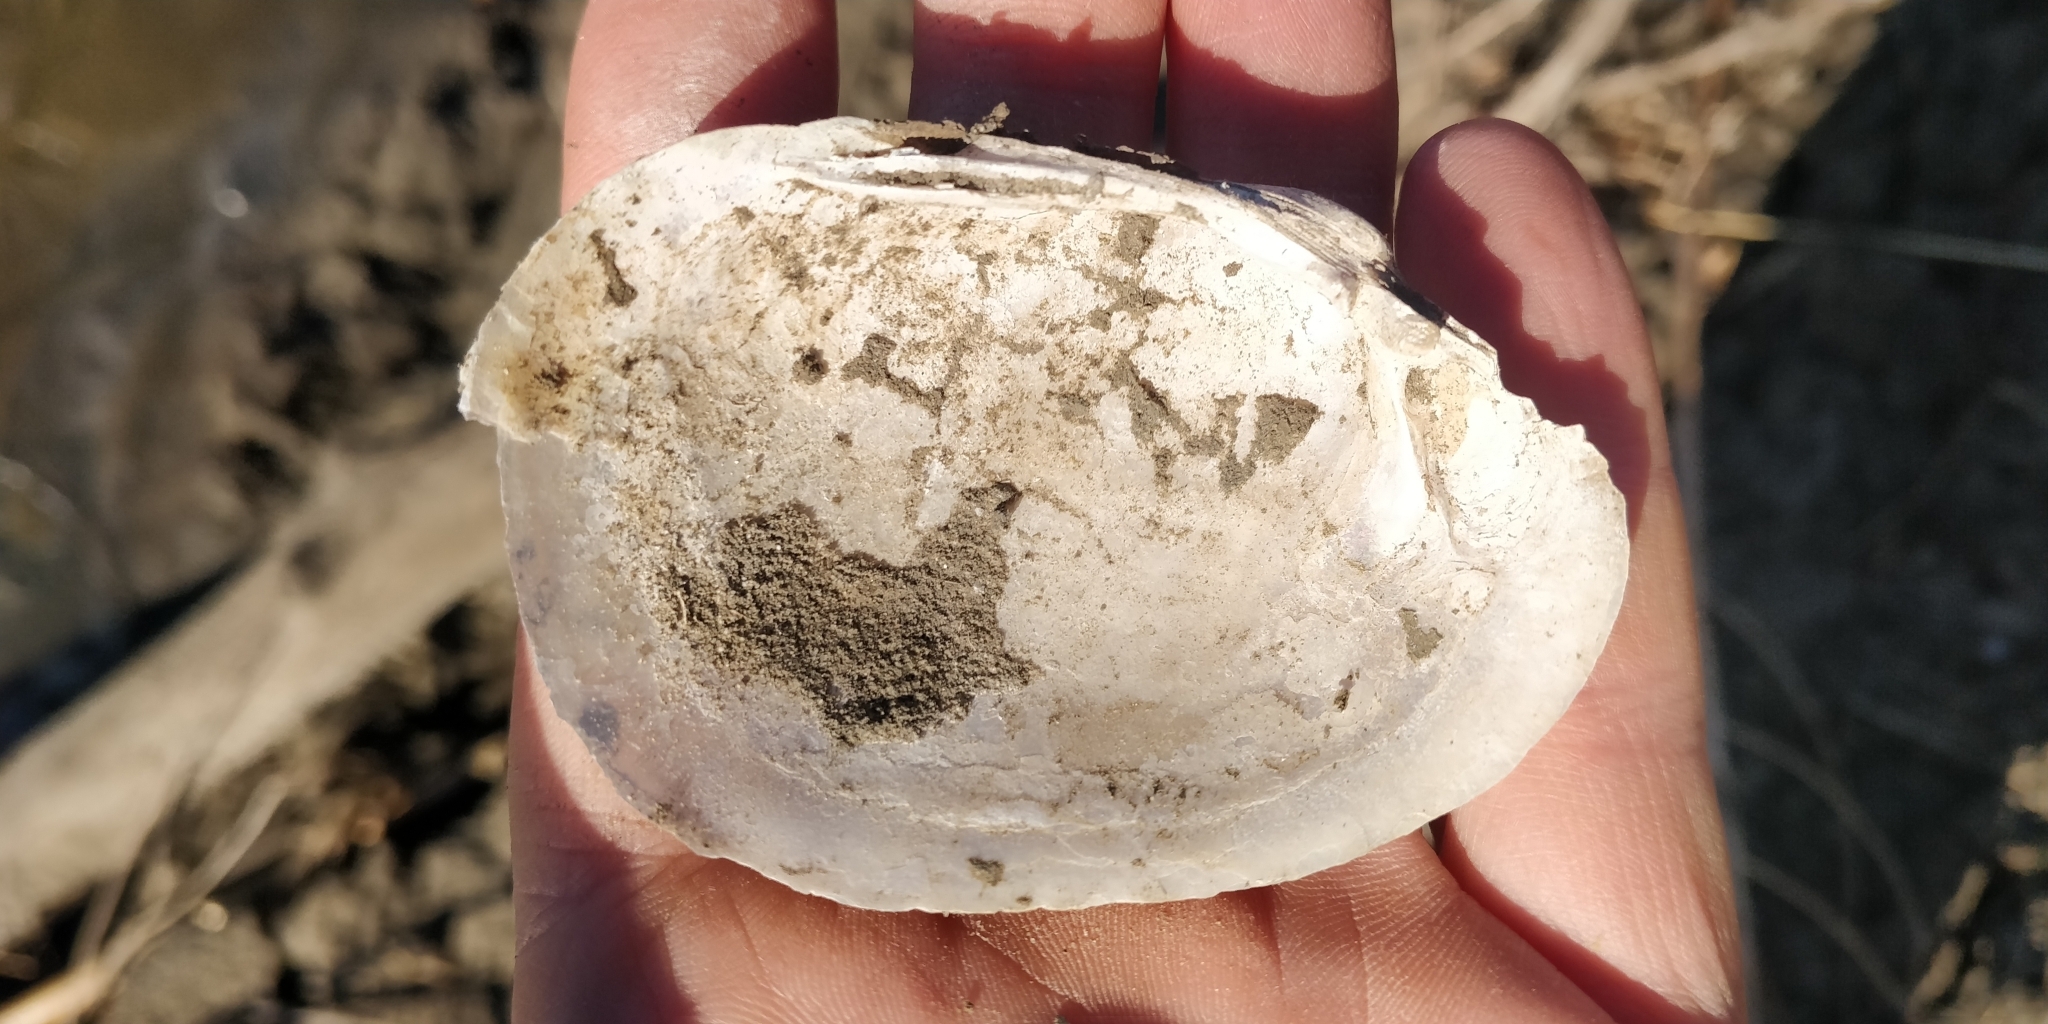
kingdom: Animalia
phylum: Mollusca
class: Bivalvia
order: Unionida
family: Unionidae
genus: Lampsilis
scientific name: Lampsilis cardium
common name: Plain pocketbook
